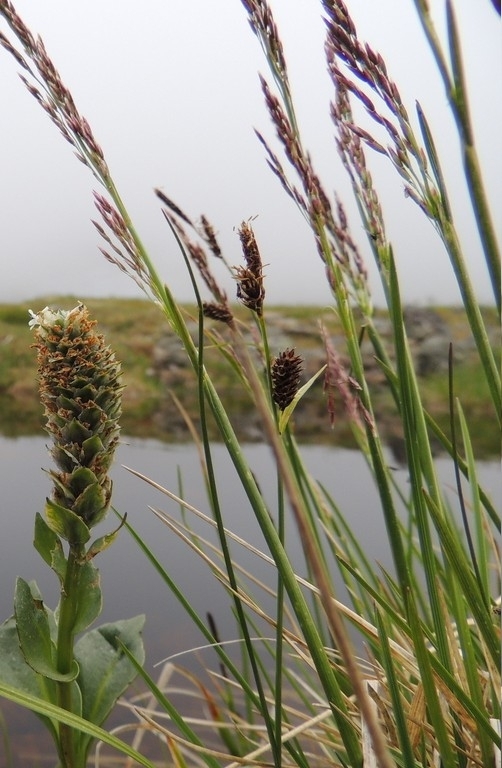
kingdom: Plantae
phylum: Tracheophyta
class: Liliopsida
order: Poales
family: Cyperaceae
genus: Carex
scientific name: Carex saxatilis
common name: Russet sedge
